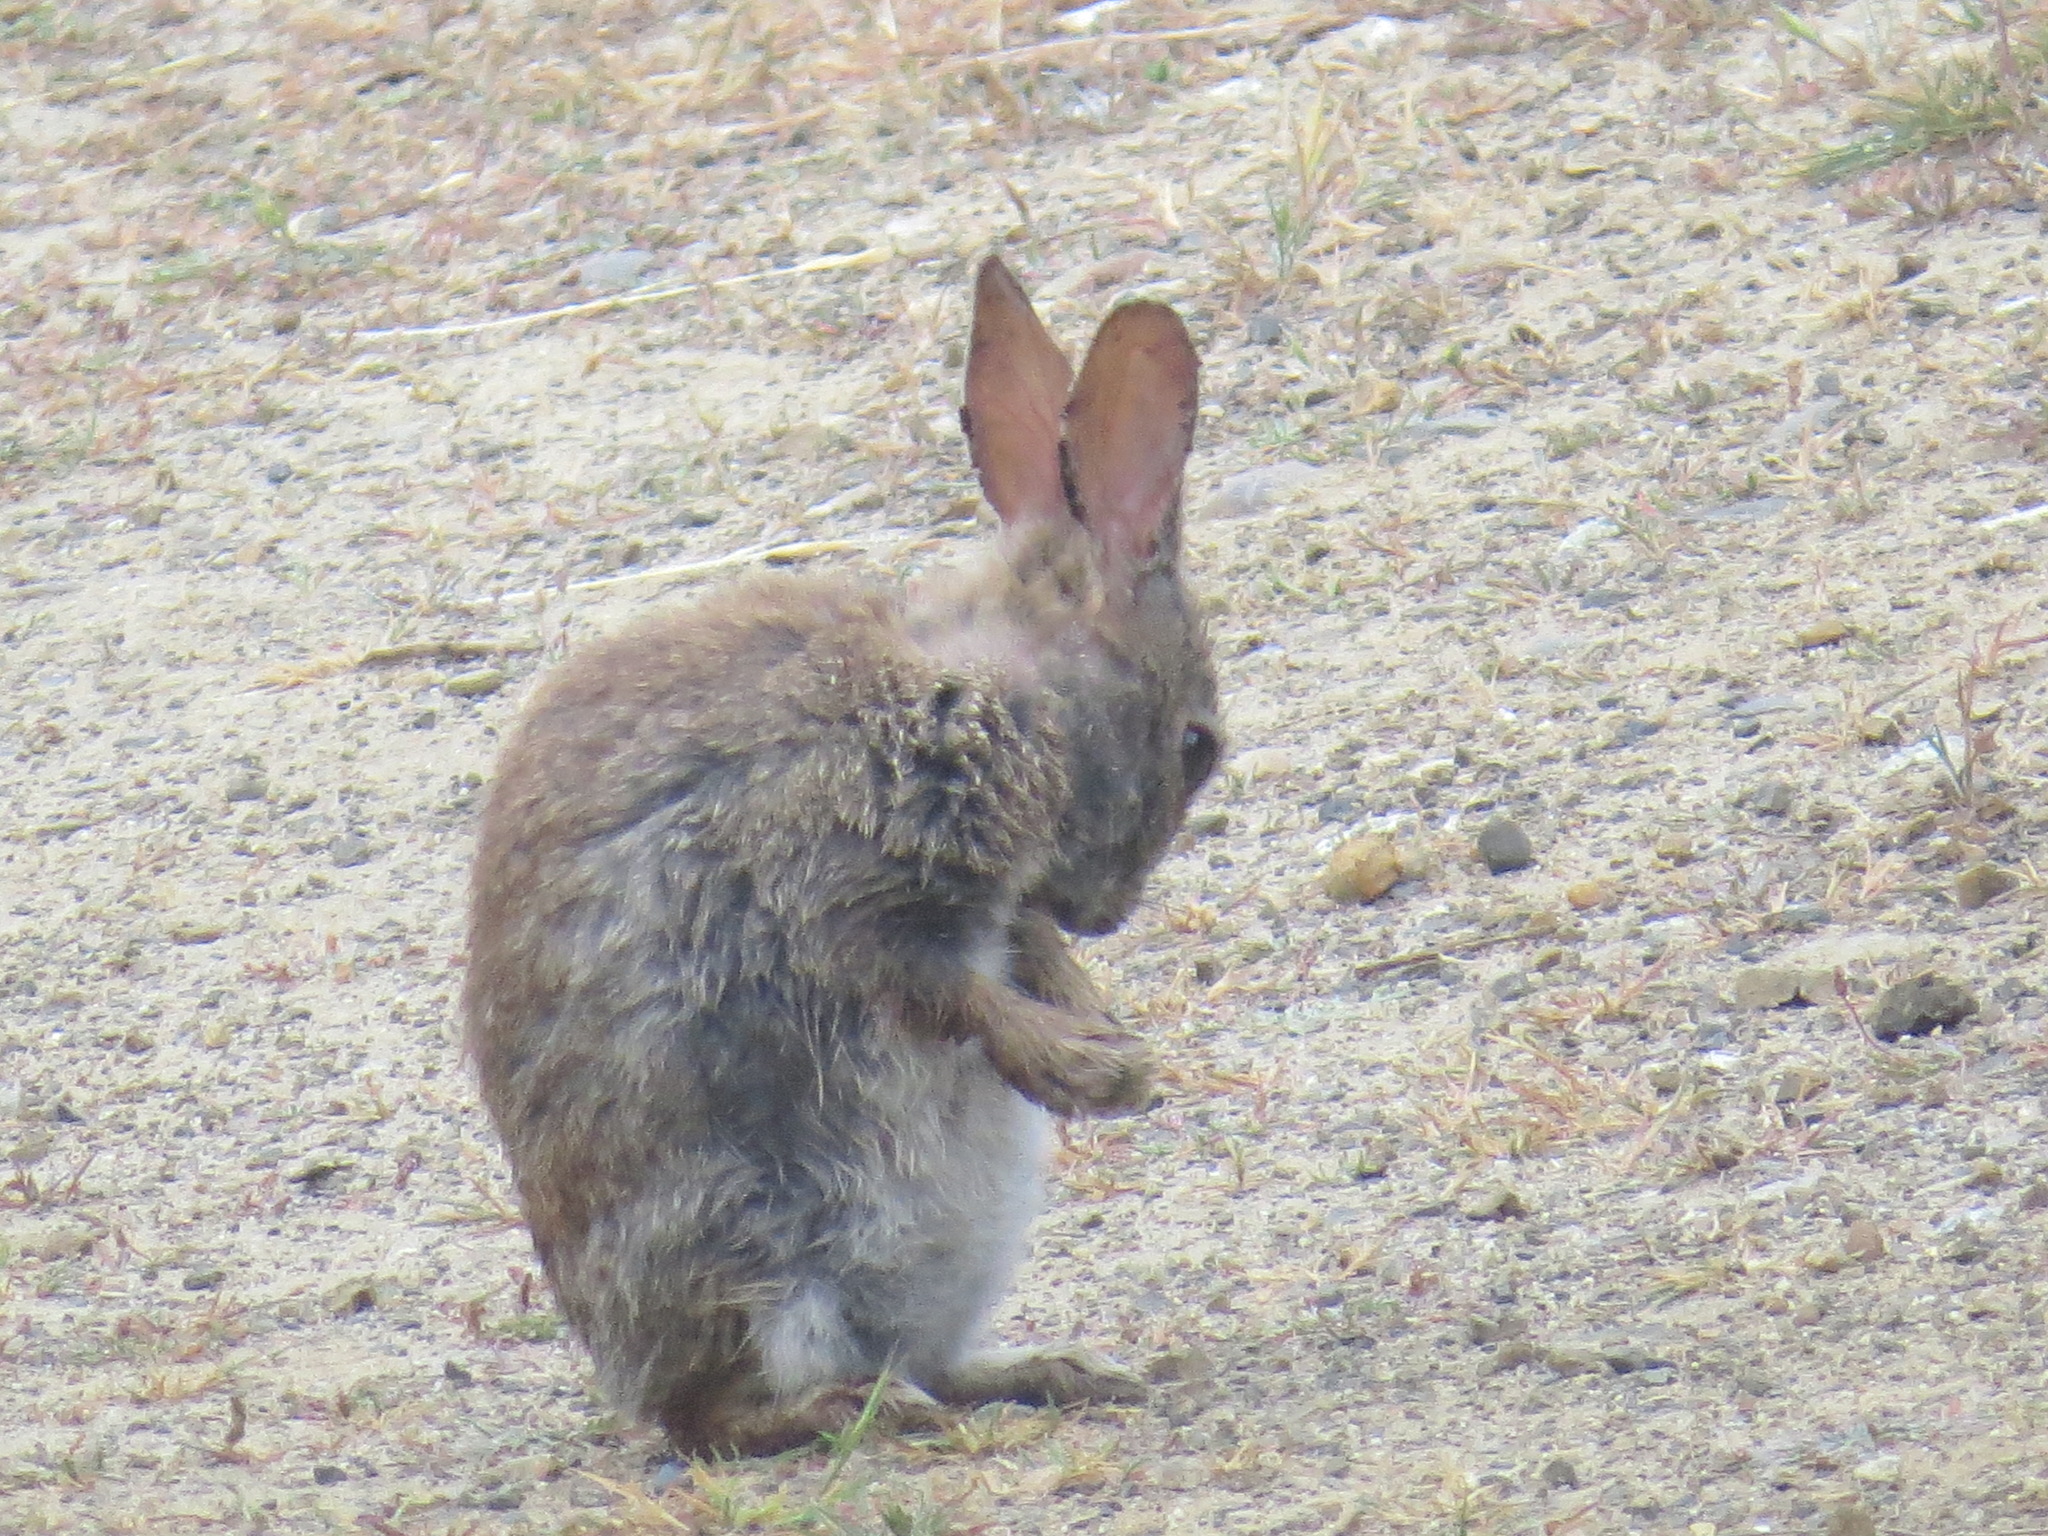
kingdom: Animalia
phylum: Chordata
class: Mammalia
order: Lagomorpha
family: Leporidae
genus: Sylvilagus
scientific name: Sylvilagus bachmani
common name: Brush rabbit
